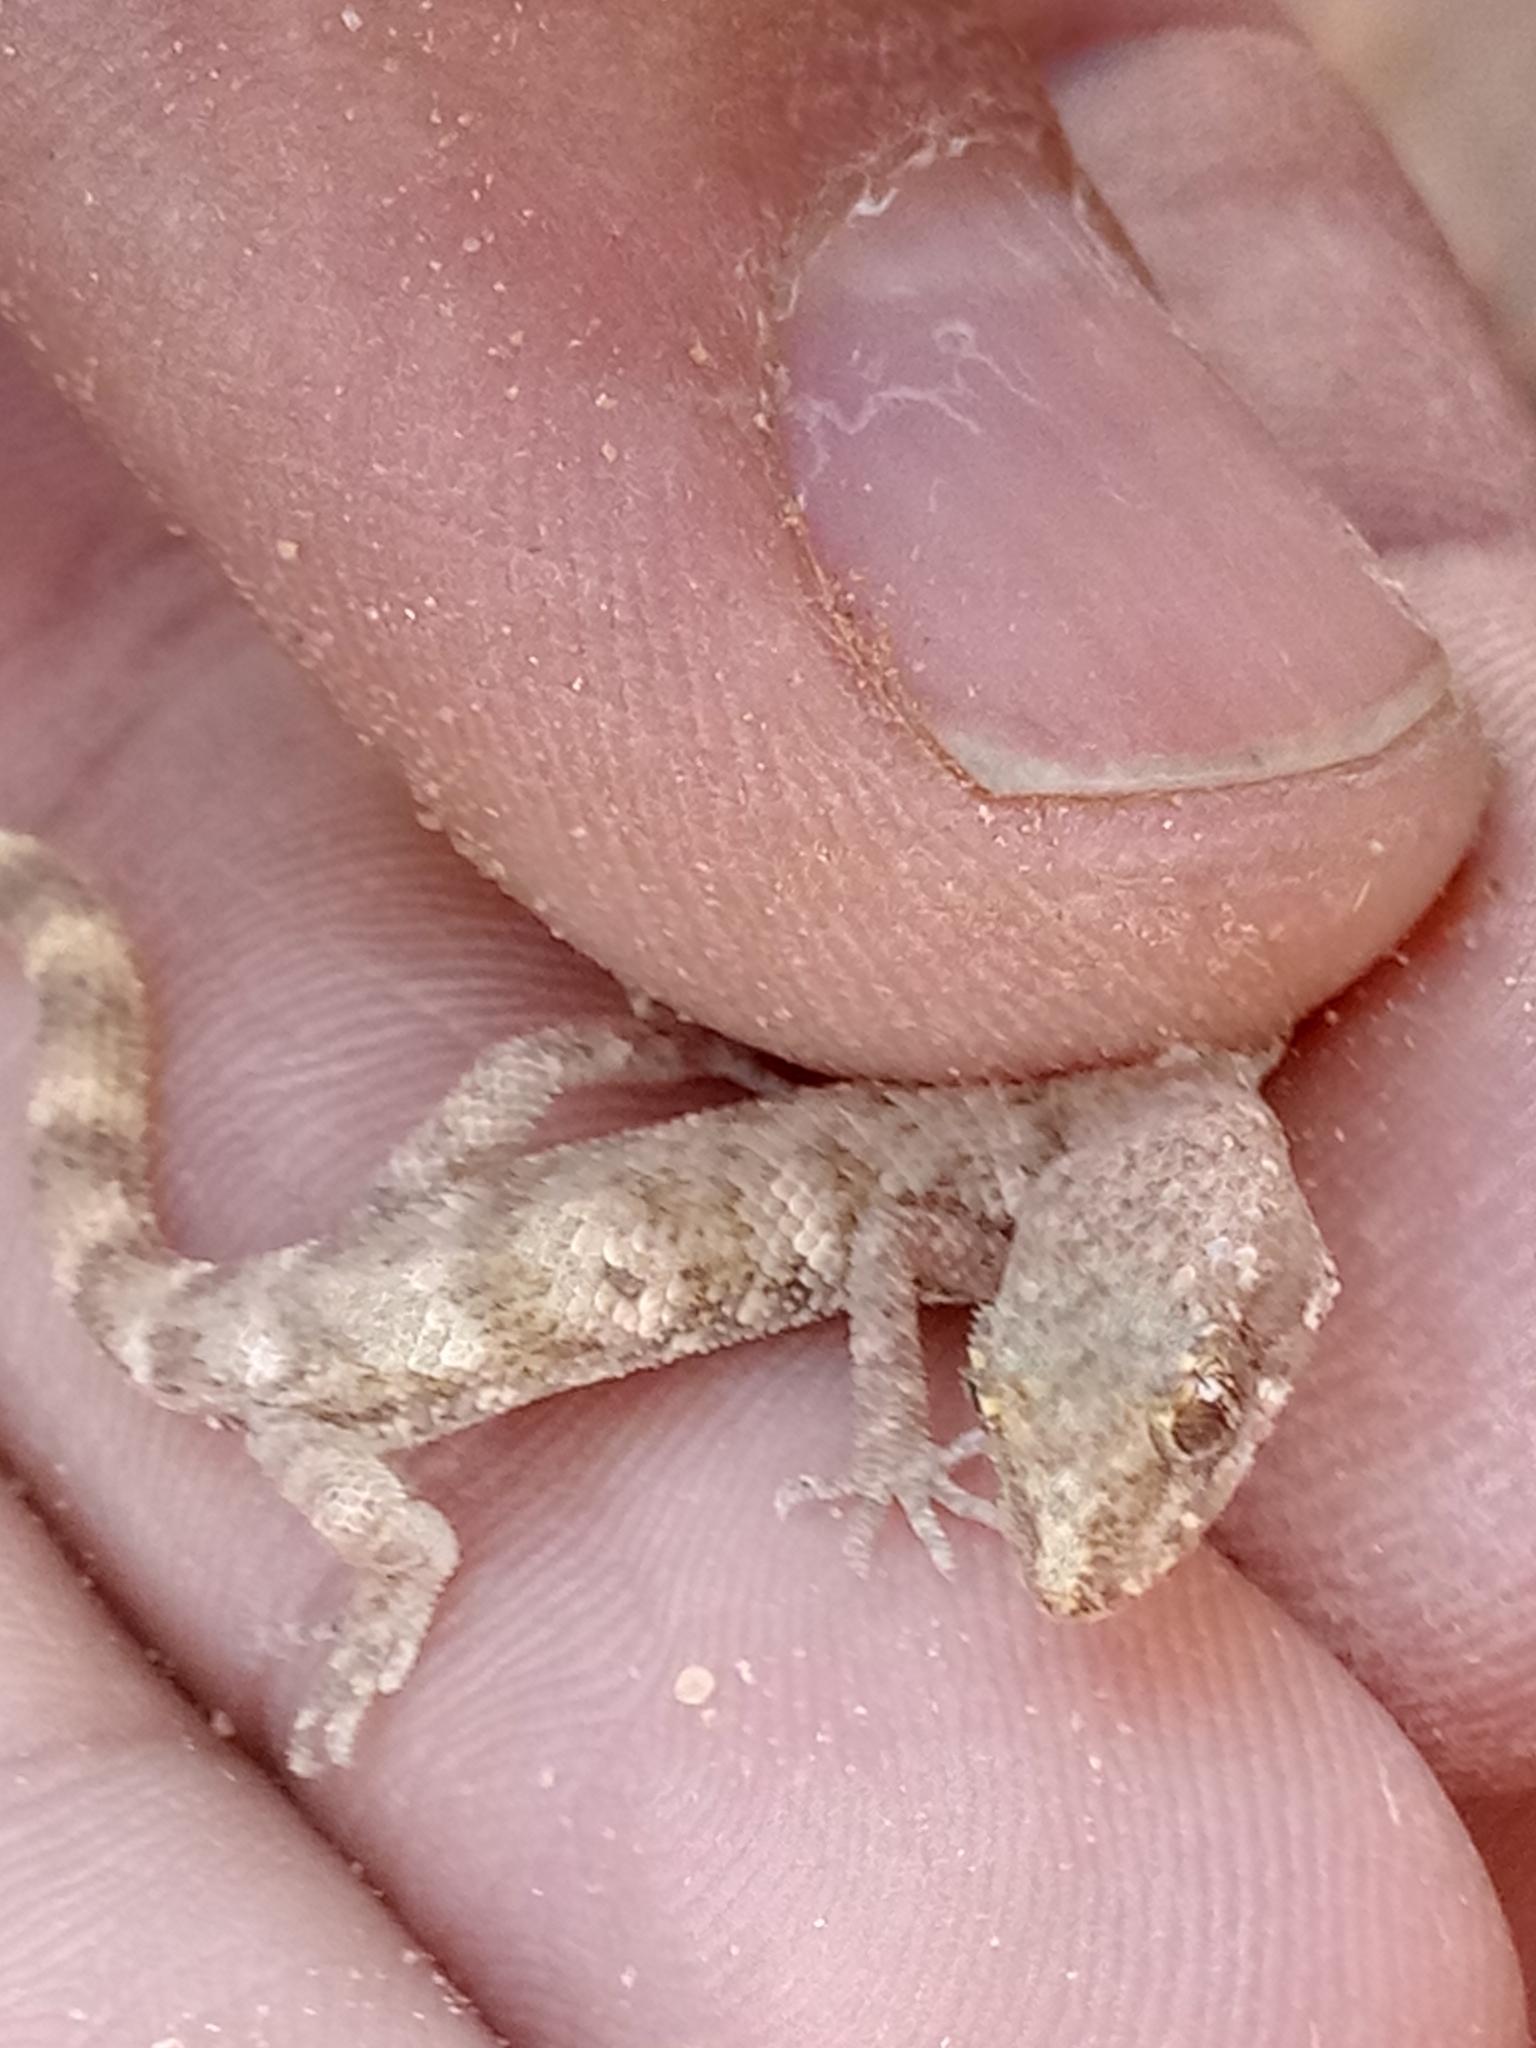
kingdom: Animalia
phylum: Chordata
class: Squamata
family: Gekkonidae
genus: Tropiocolotes
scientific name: Tropiocolotes algericus
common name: Algerian sand gecko
